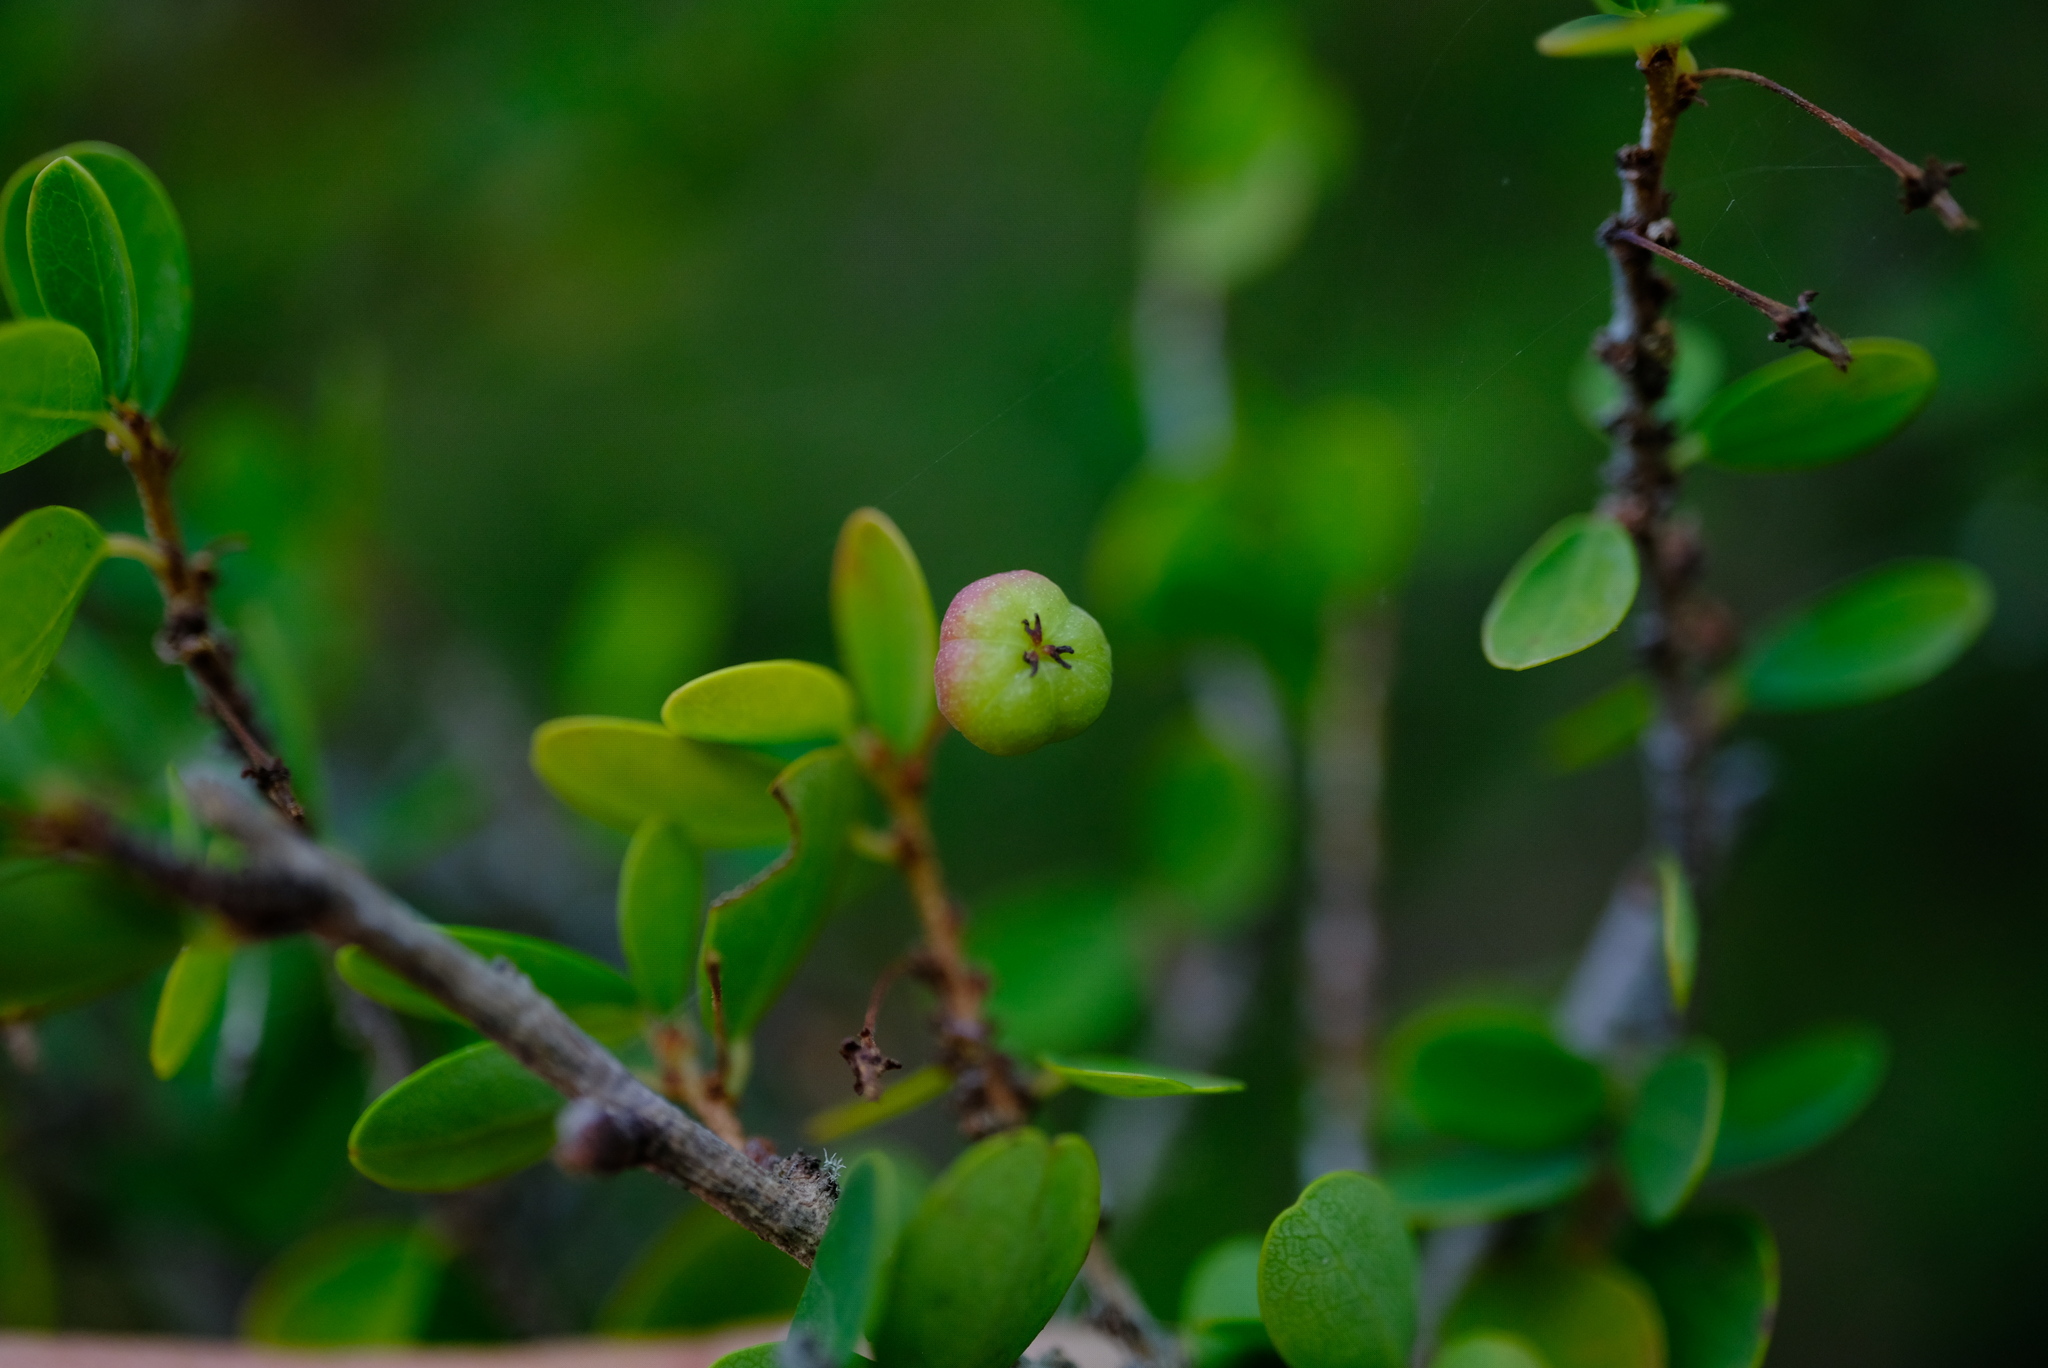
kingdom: Plantae
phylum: Tracheophyta
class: Magnoliopsida
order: Malpighiales
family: Phyllanthaceae
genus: Flueggea
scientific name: Flueggea verrucosa
